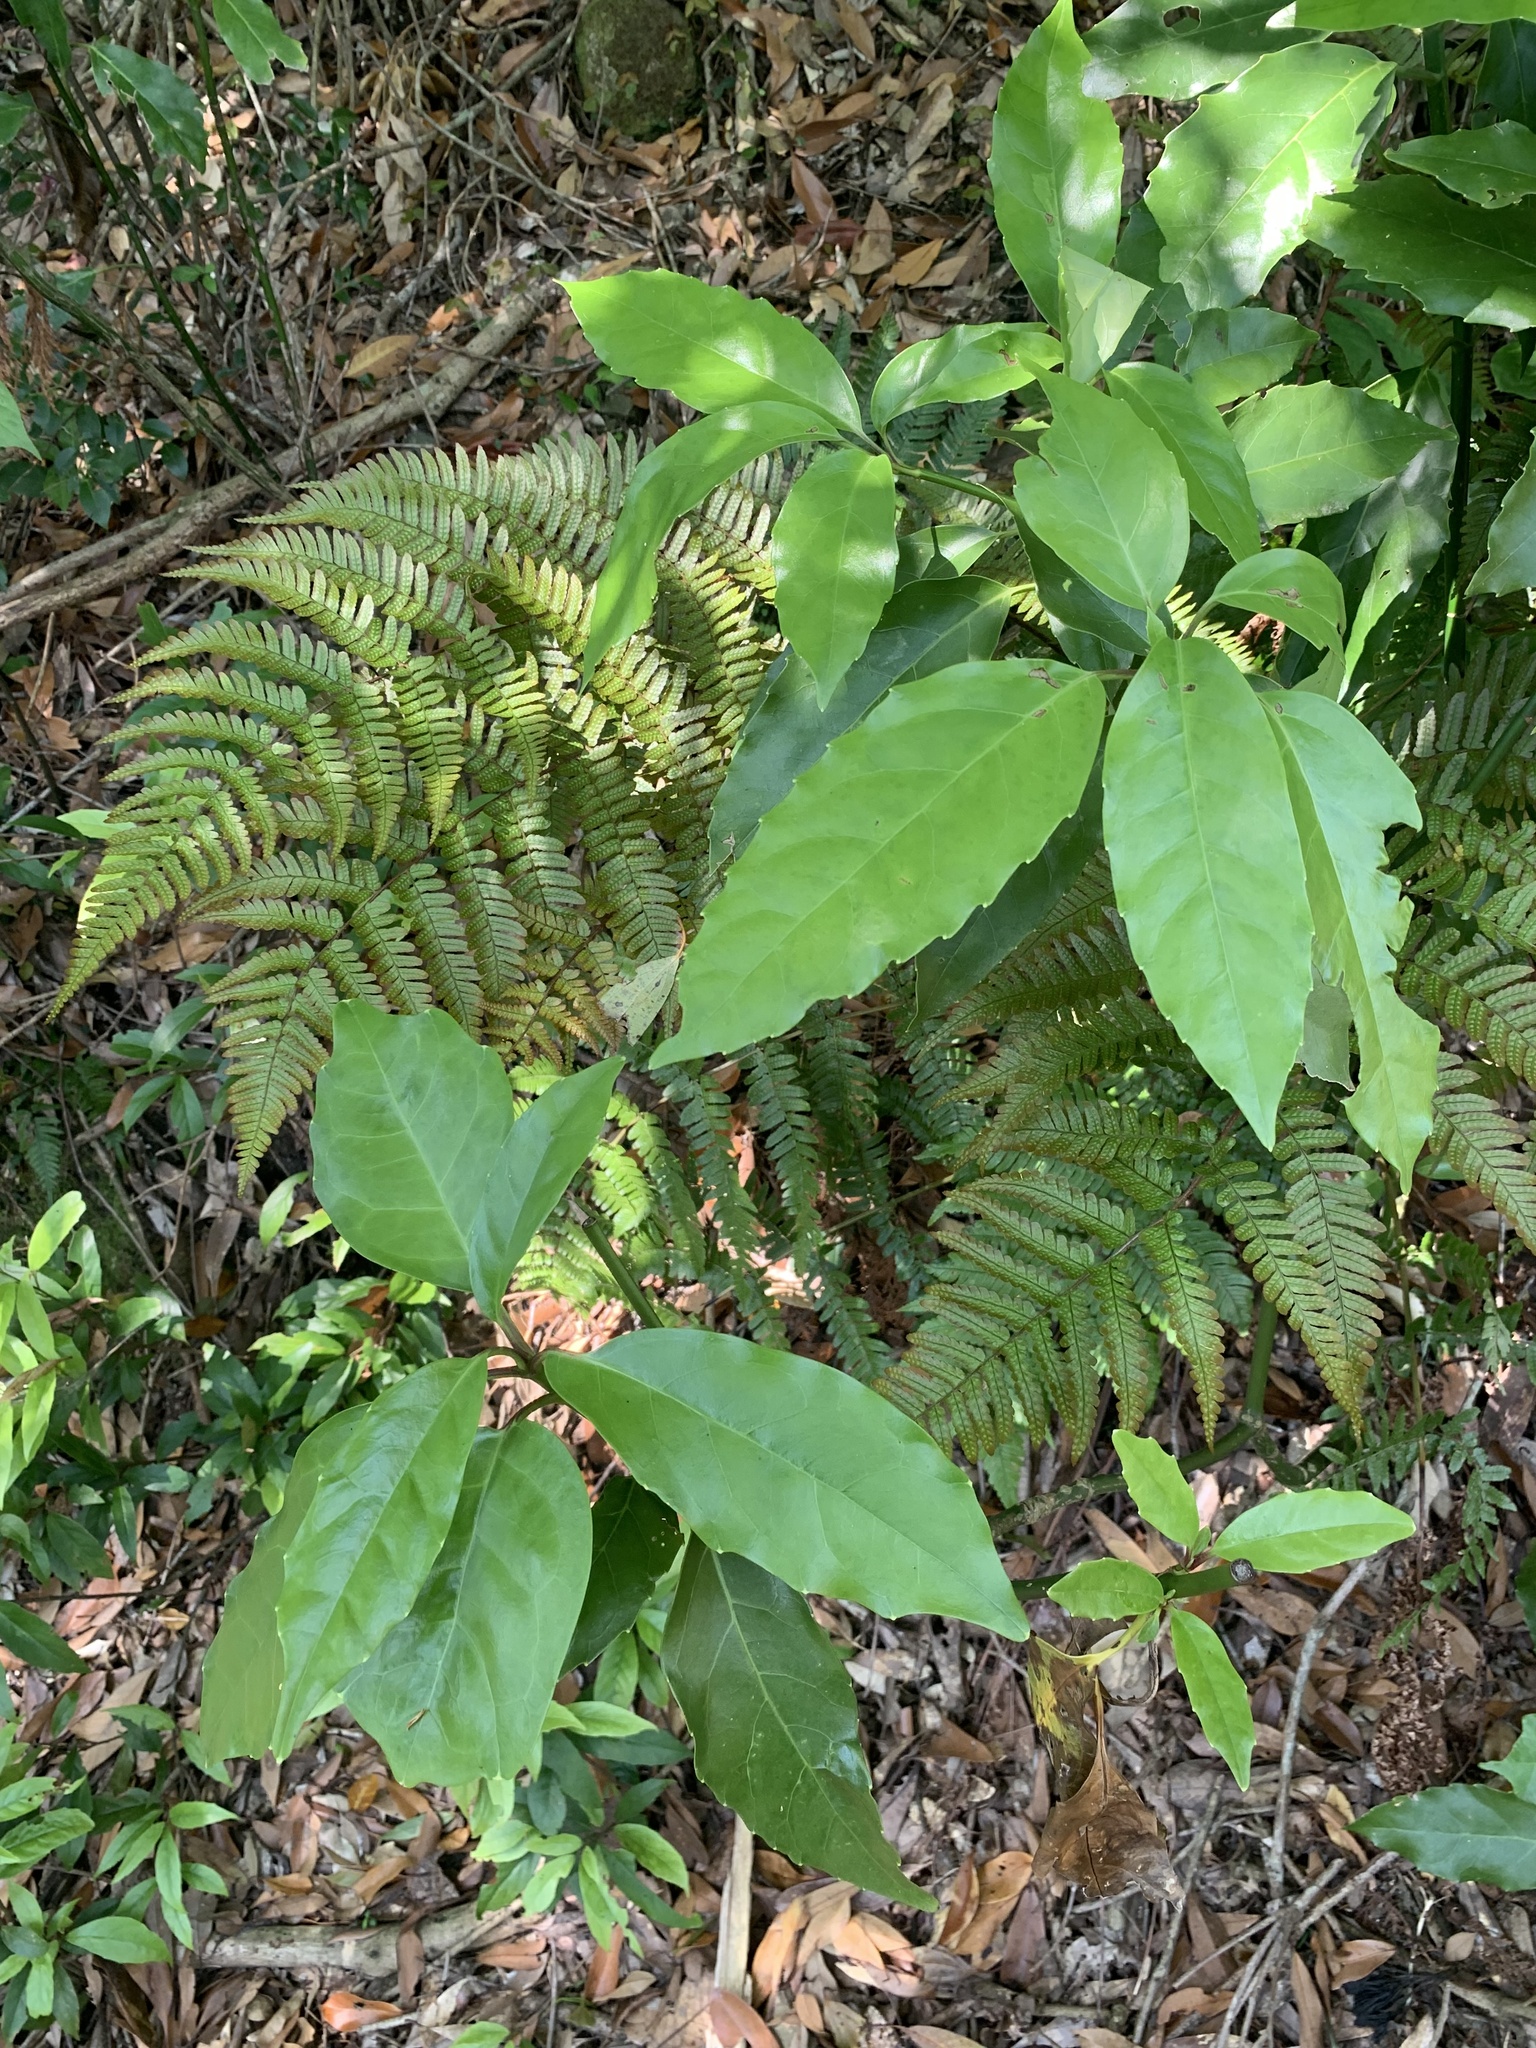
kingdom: Plantae
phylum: Tracheophyta
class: Magnoliopsida
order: Garryales
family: Garryaceae
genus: Aucuba
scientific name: Aucuba japonica
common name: Spotted-laurel
